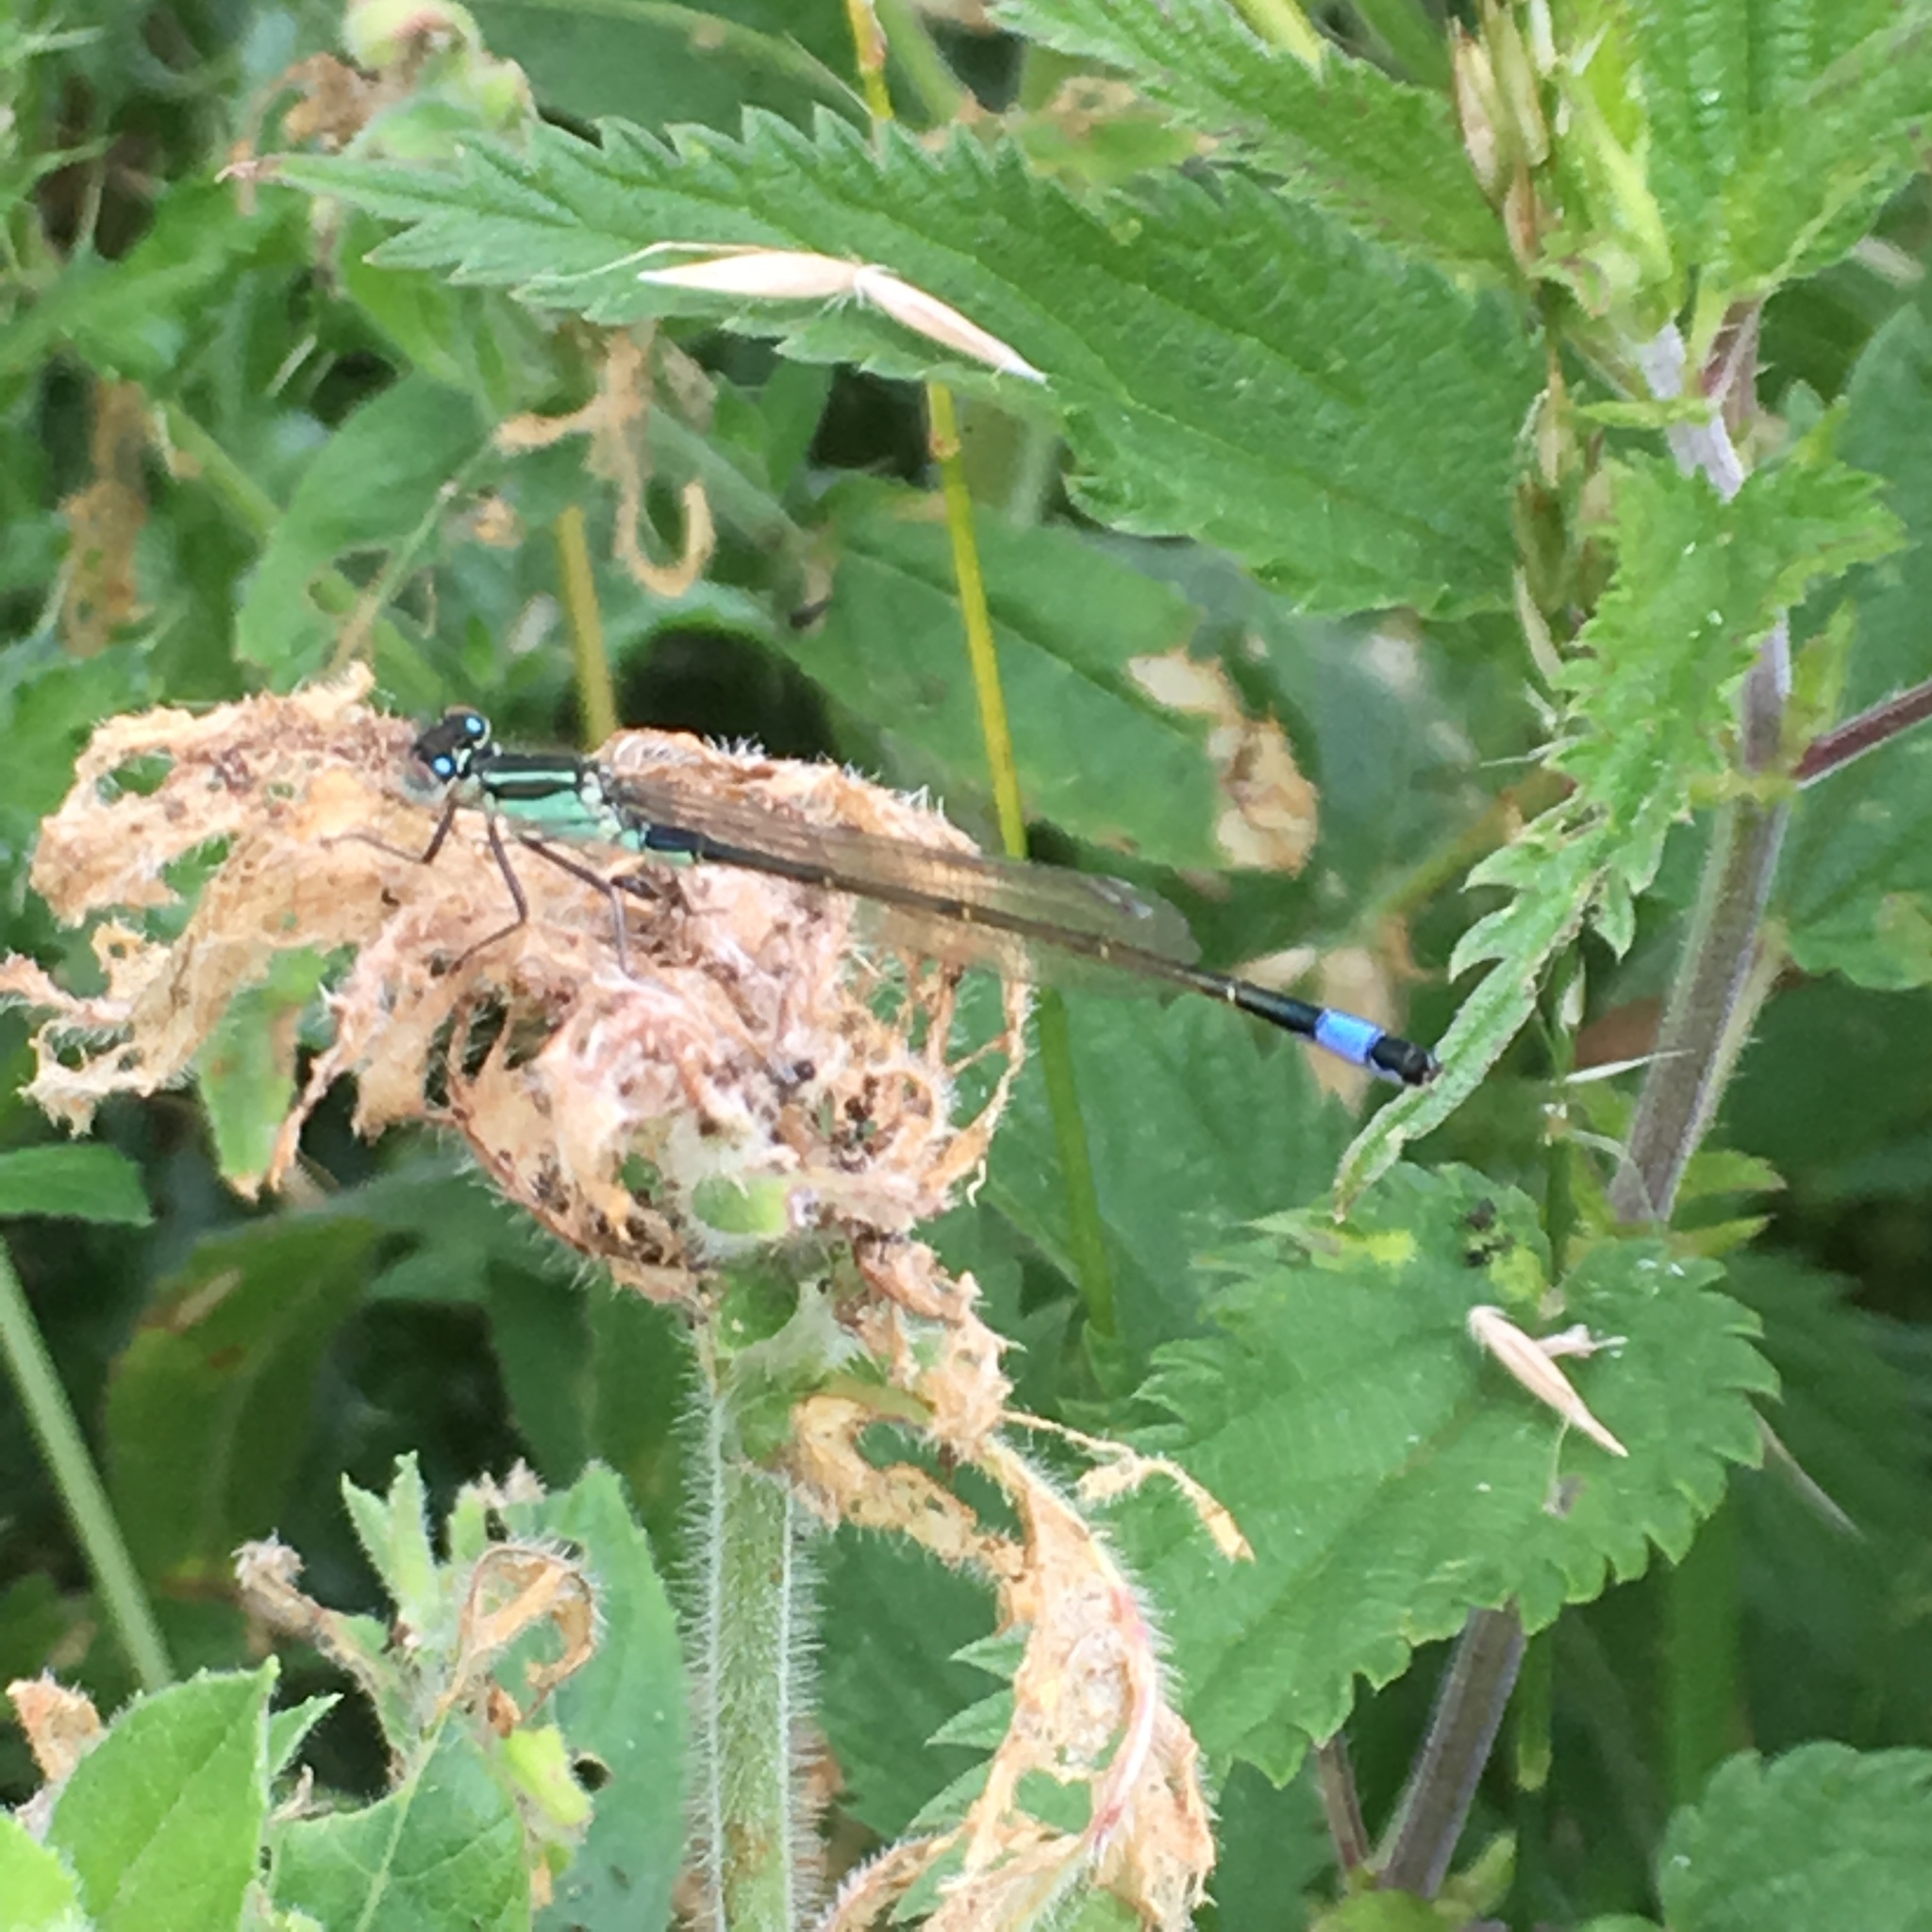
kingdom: Animalia
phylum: Arthropoda
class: Insecta
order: Odonata
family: Coenagrionidae
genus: Ischnura
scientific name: Ischnura elegans
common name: Blue-tailed damselfly
